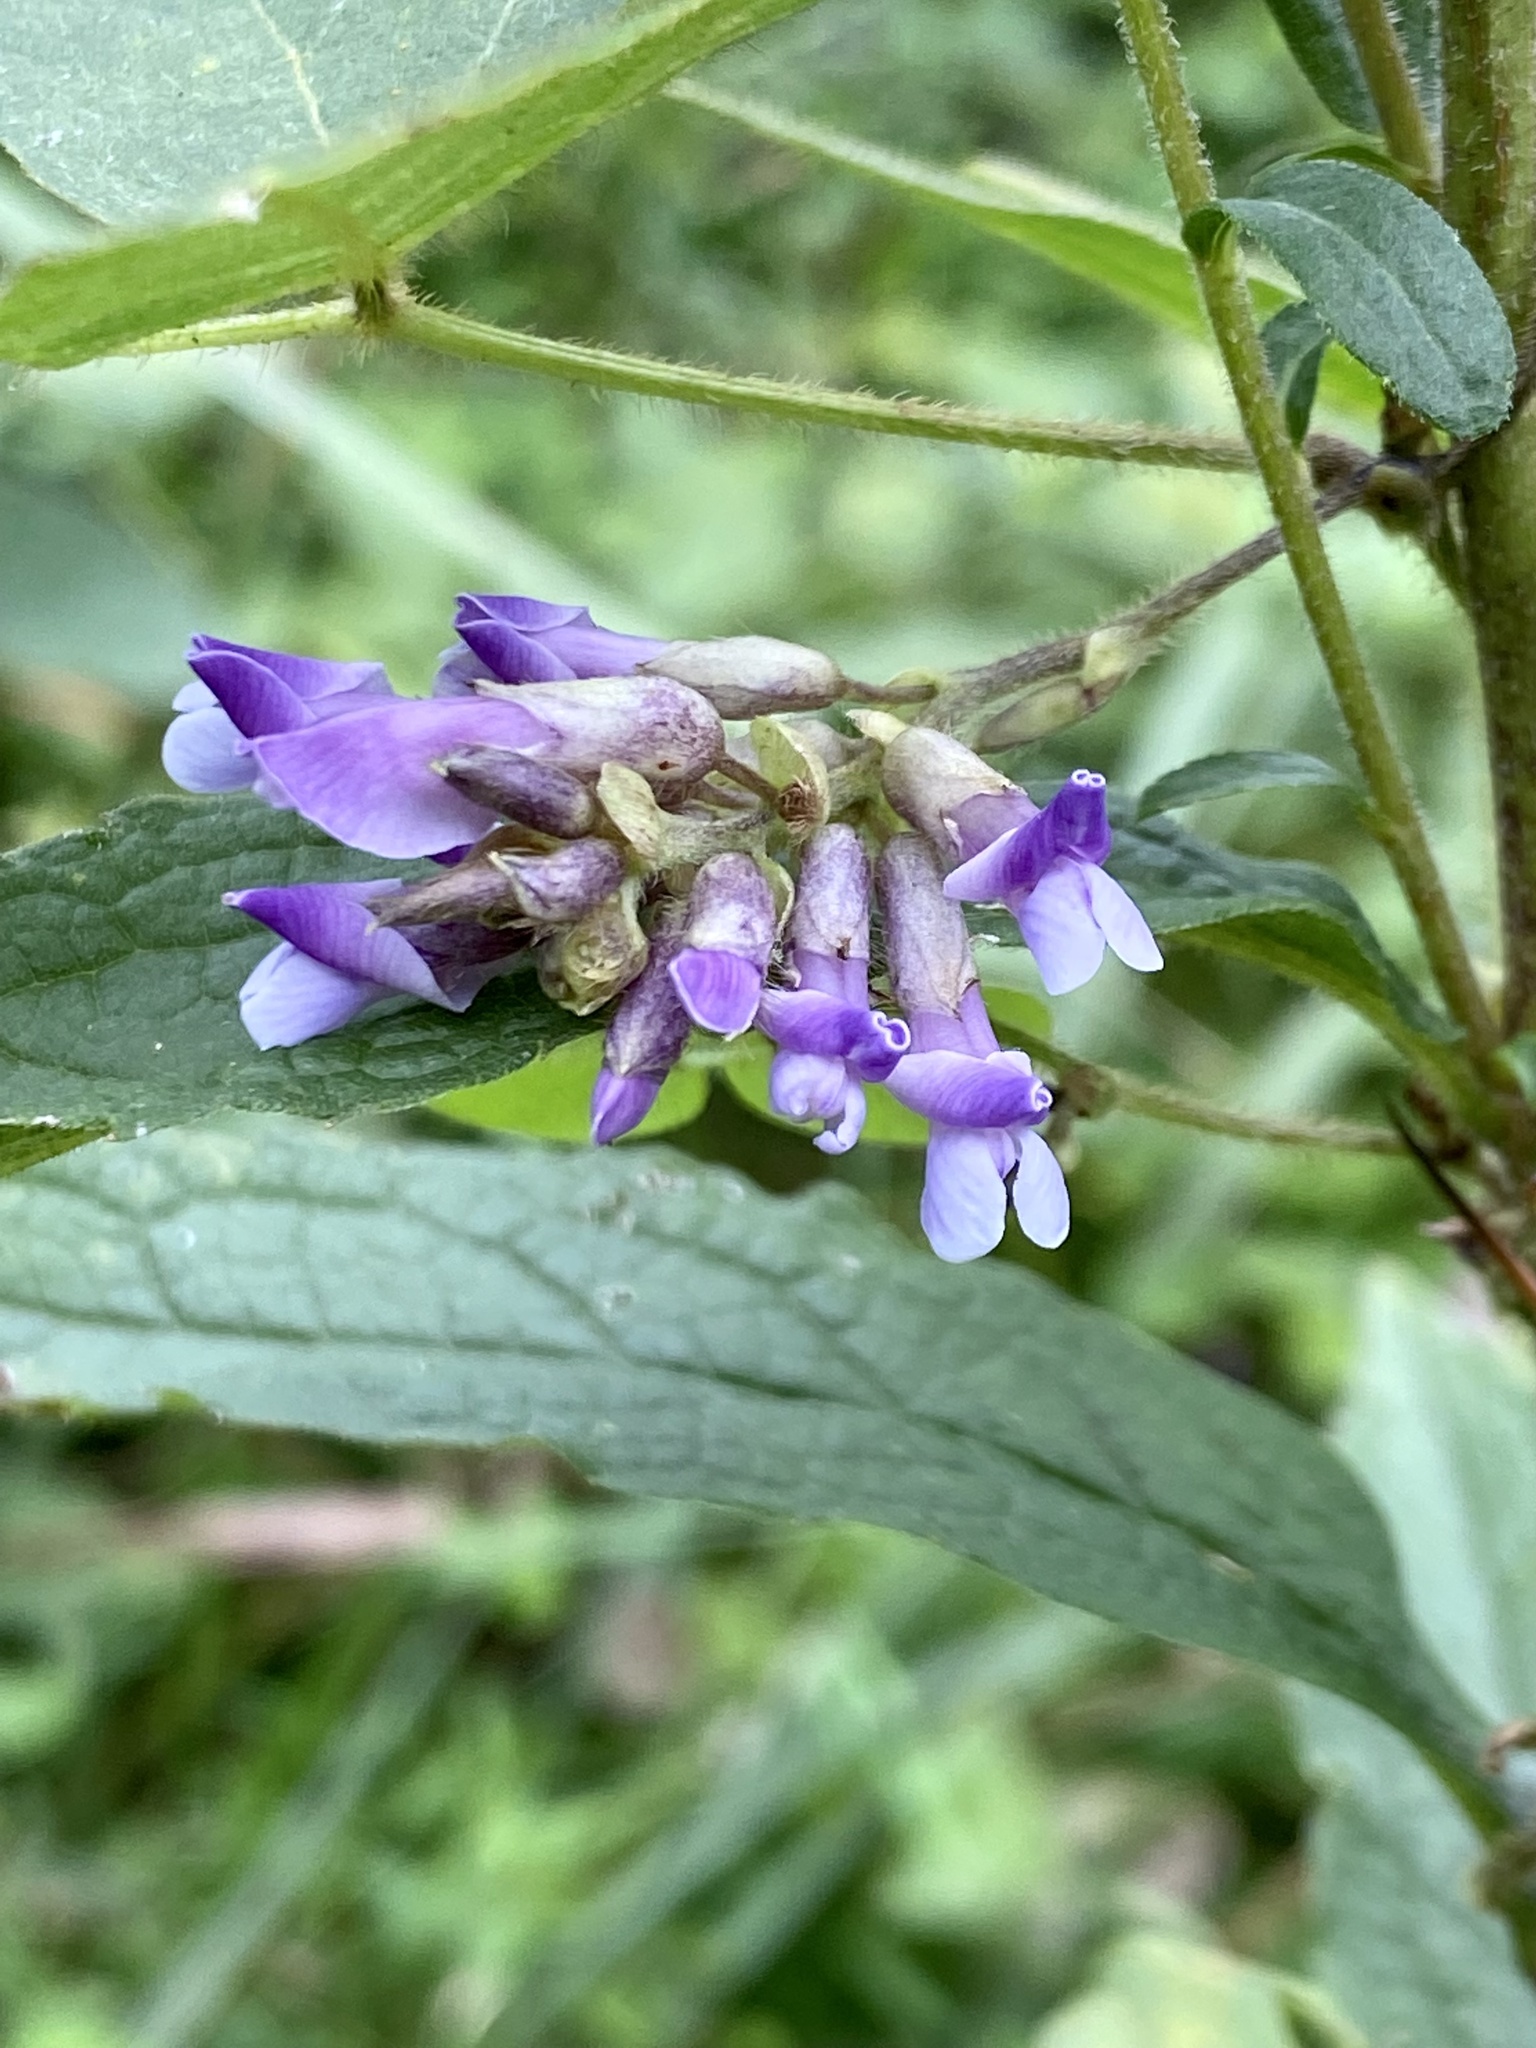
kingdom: Plantae
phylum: Tracheophyta
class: Magnoliopsida
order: Fabales
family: Fabaceae
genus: Amphicarpaea
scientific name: Amphicarpaea bracteata
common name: American hog peanut
